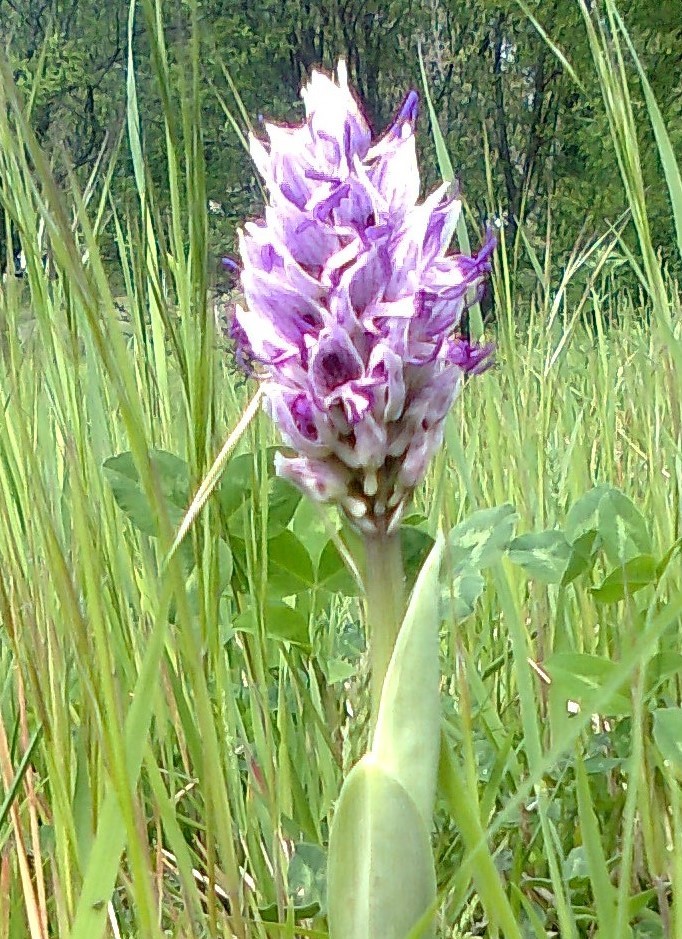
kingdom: Plantae
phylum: Tracheophyta
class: Liliopsida
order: Asparagales
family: Orchidaceae
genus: Orchis
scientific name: Orchis simia
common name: Monkey orchid
